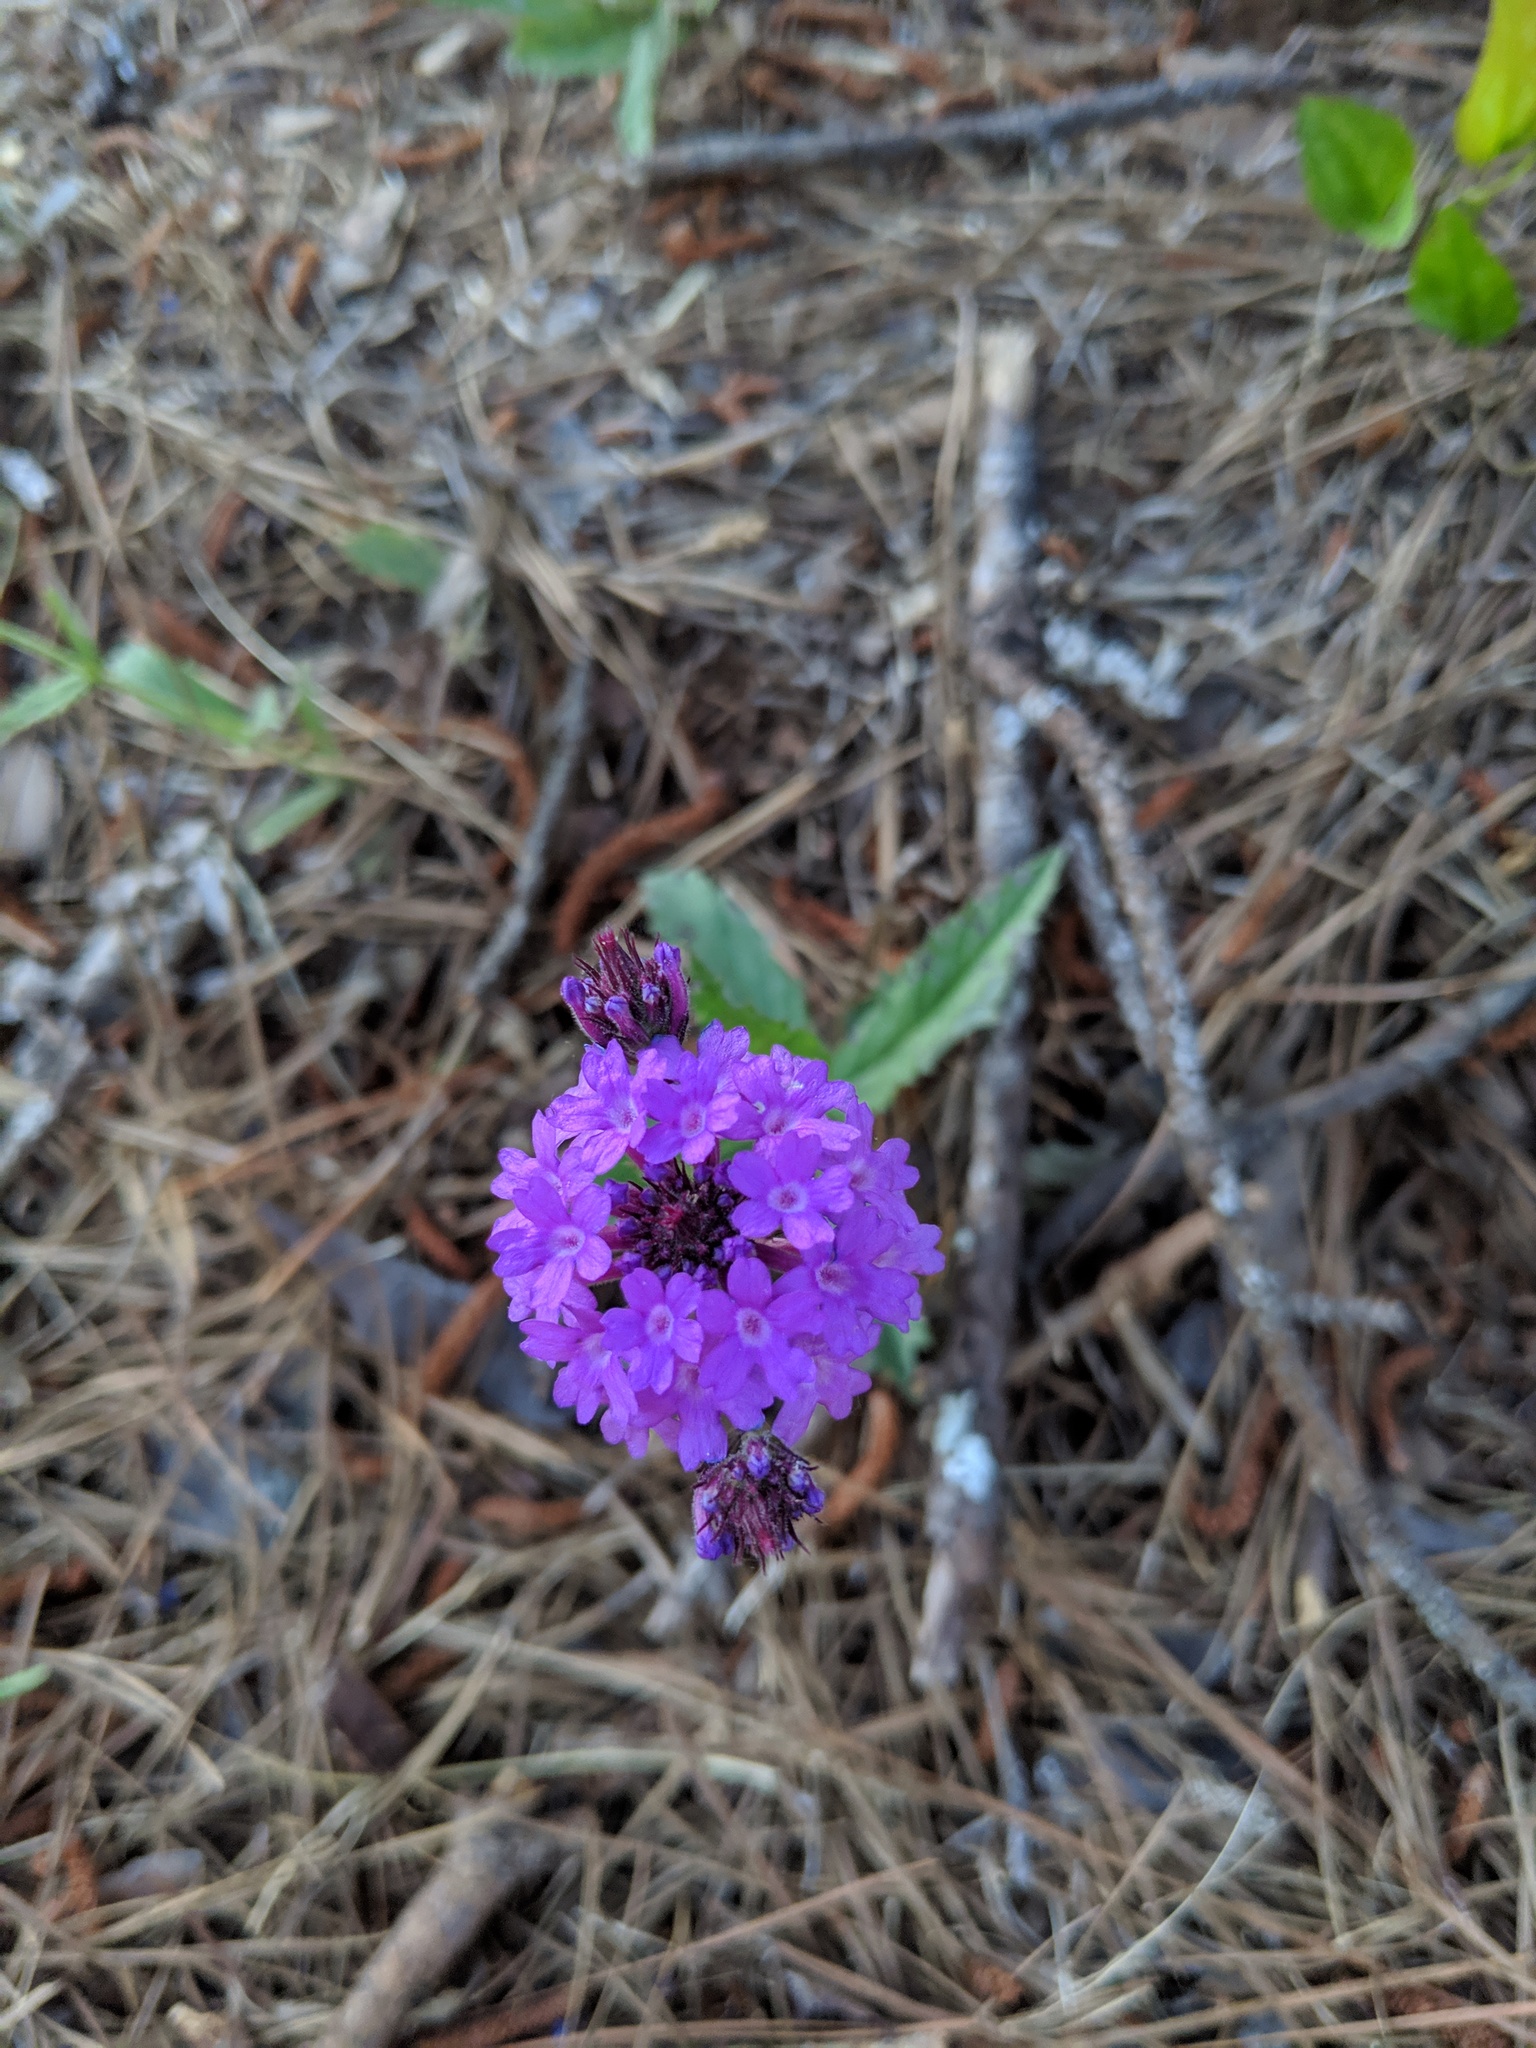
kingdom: Plantae
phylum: Tracheophyta
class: Magnoliopsida
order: Lamiales
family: Verbenaceae
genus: Verbena
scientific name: Verbena rigida
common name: Slender vervain
